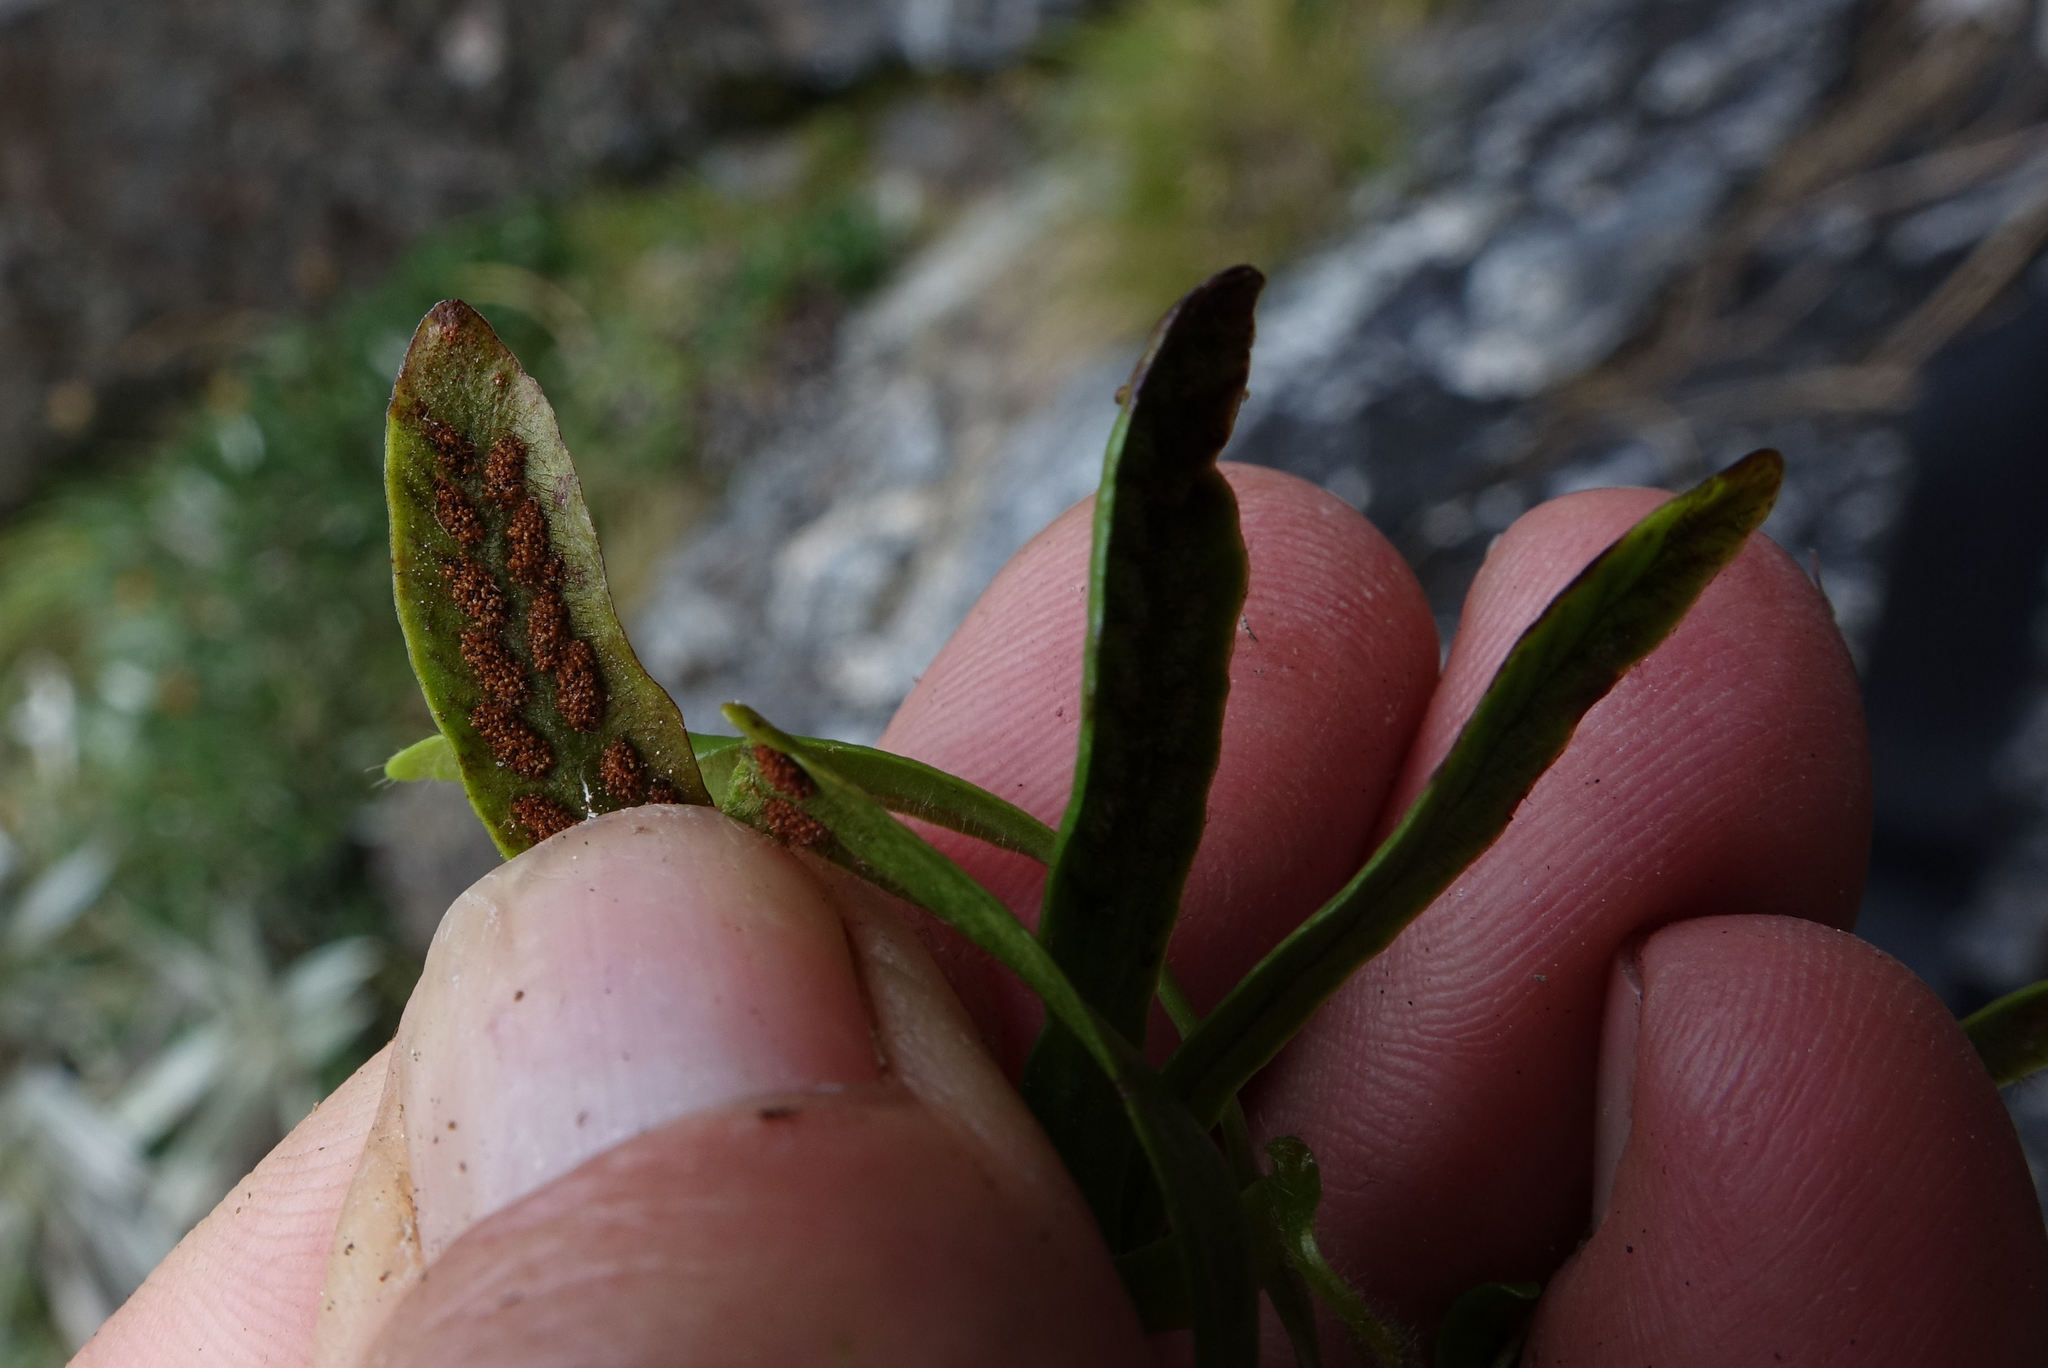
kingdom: Plantae
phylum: Tracheophyta
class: Polypodiopsida
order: Polypodiales
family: Polypodiaceae
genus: Notogrammitis
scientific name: Notogrammitis patagonica
